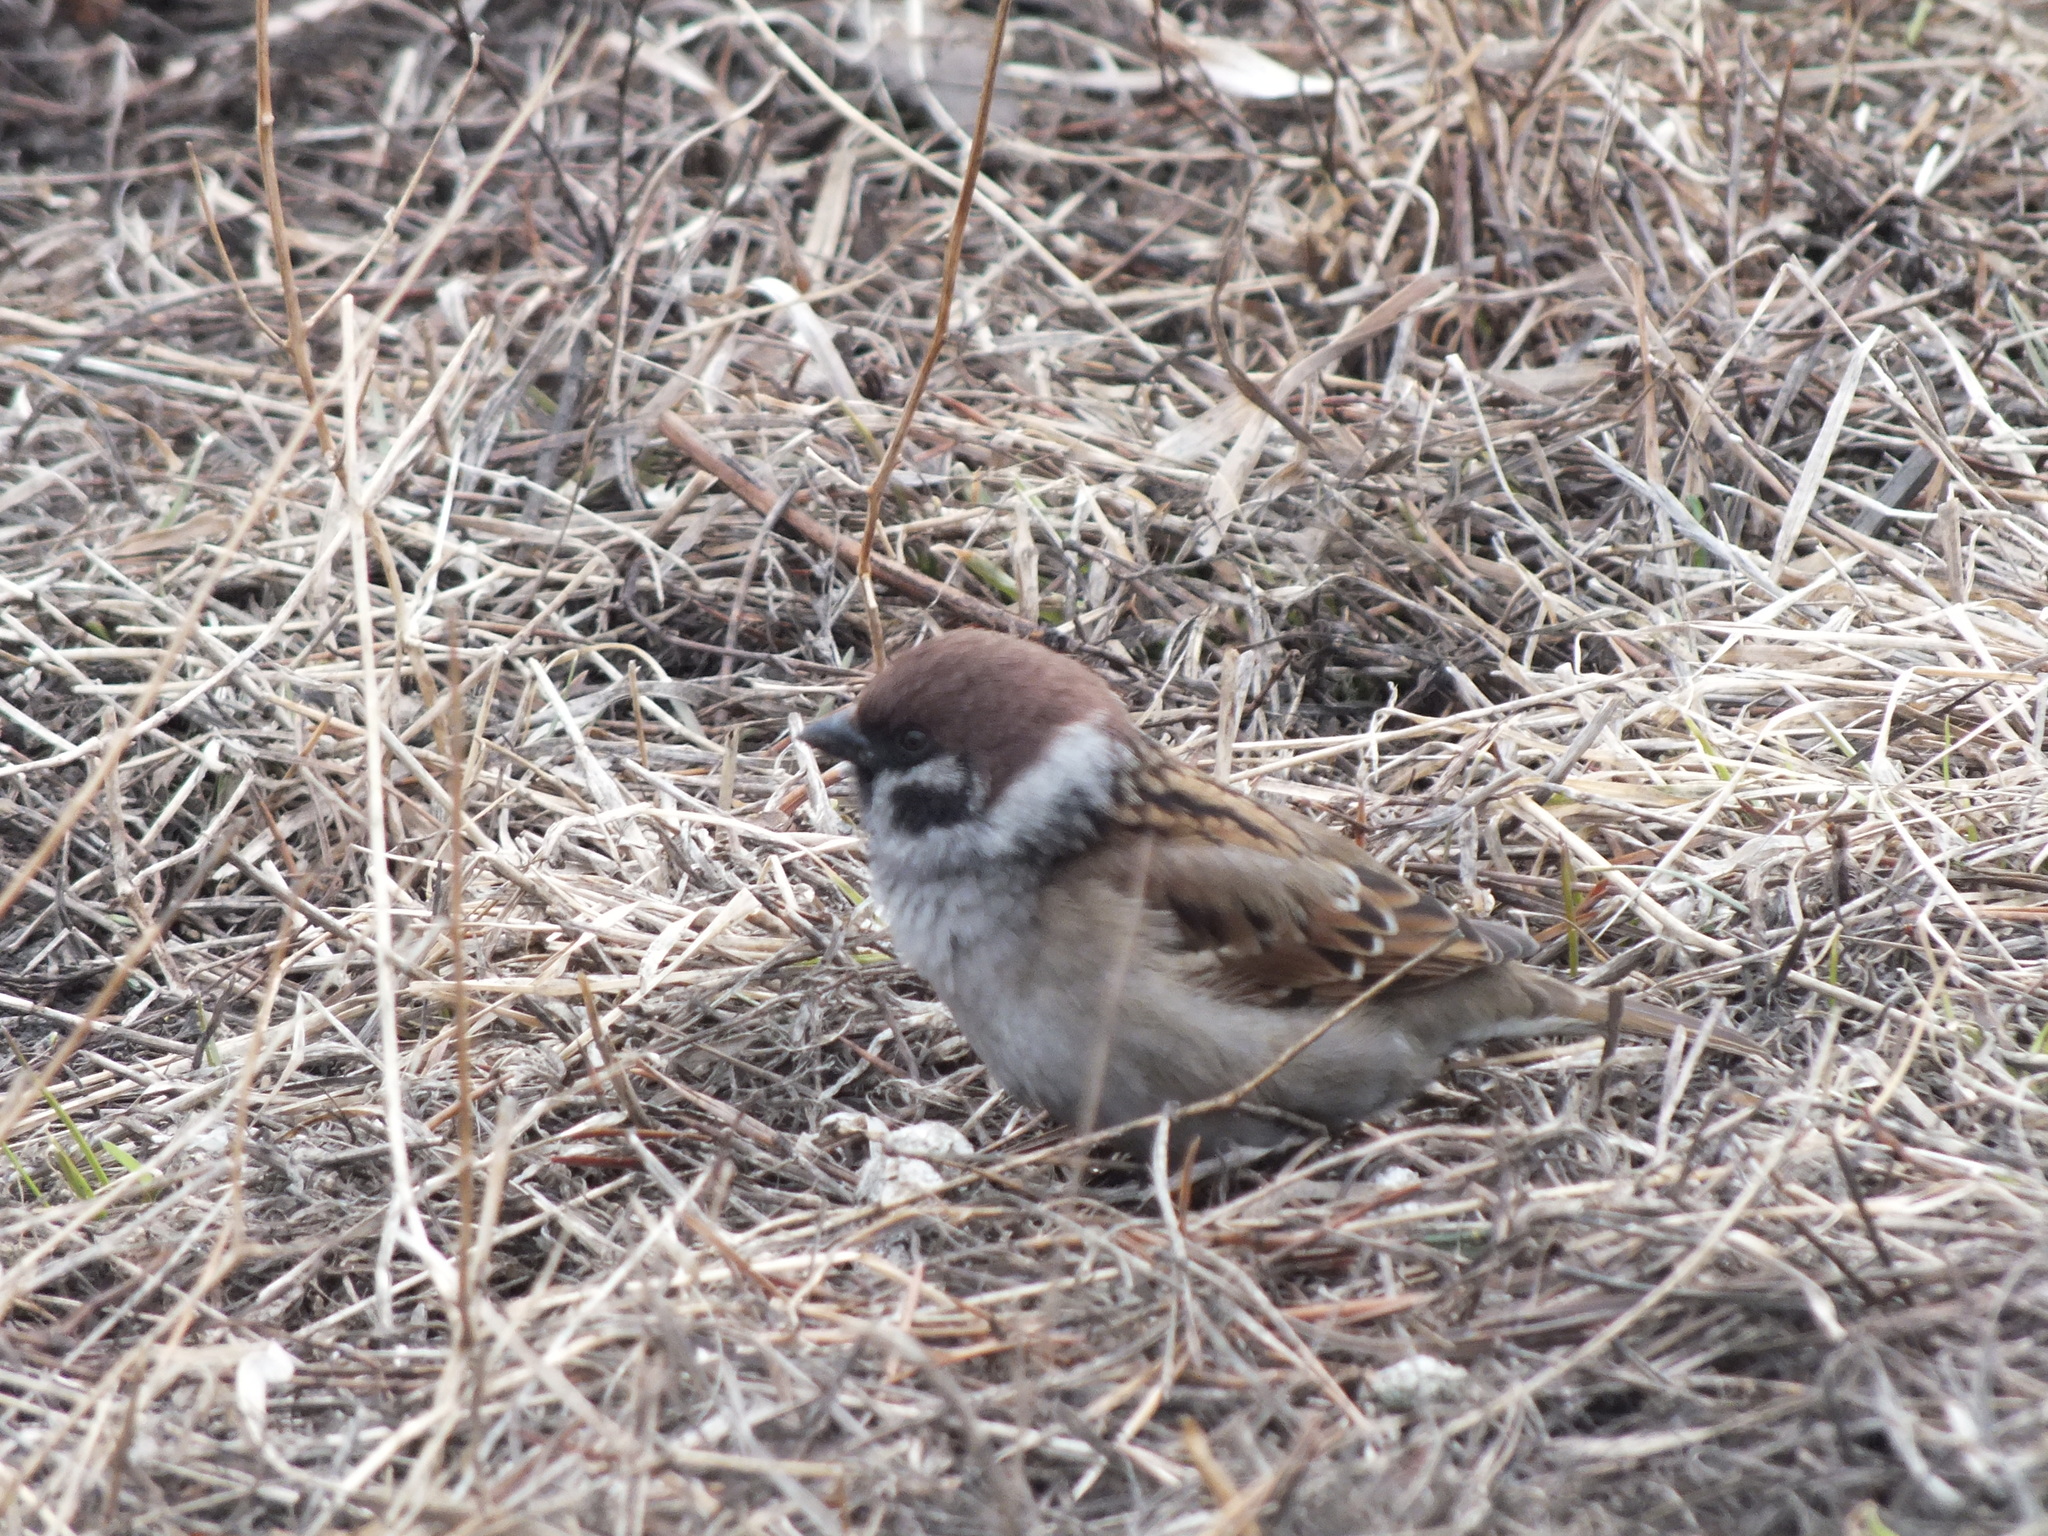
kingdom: Animalia
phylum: Chordata
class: Aves
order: Passeriformes
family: Passeridae
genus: Passer
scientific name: Passer montanus
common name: Eurasian tree sparrow
